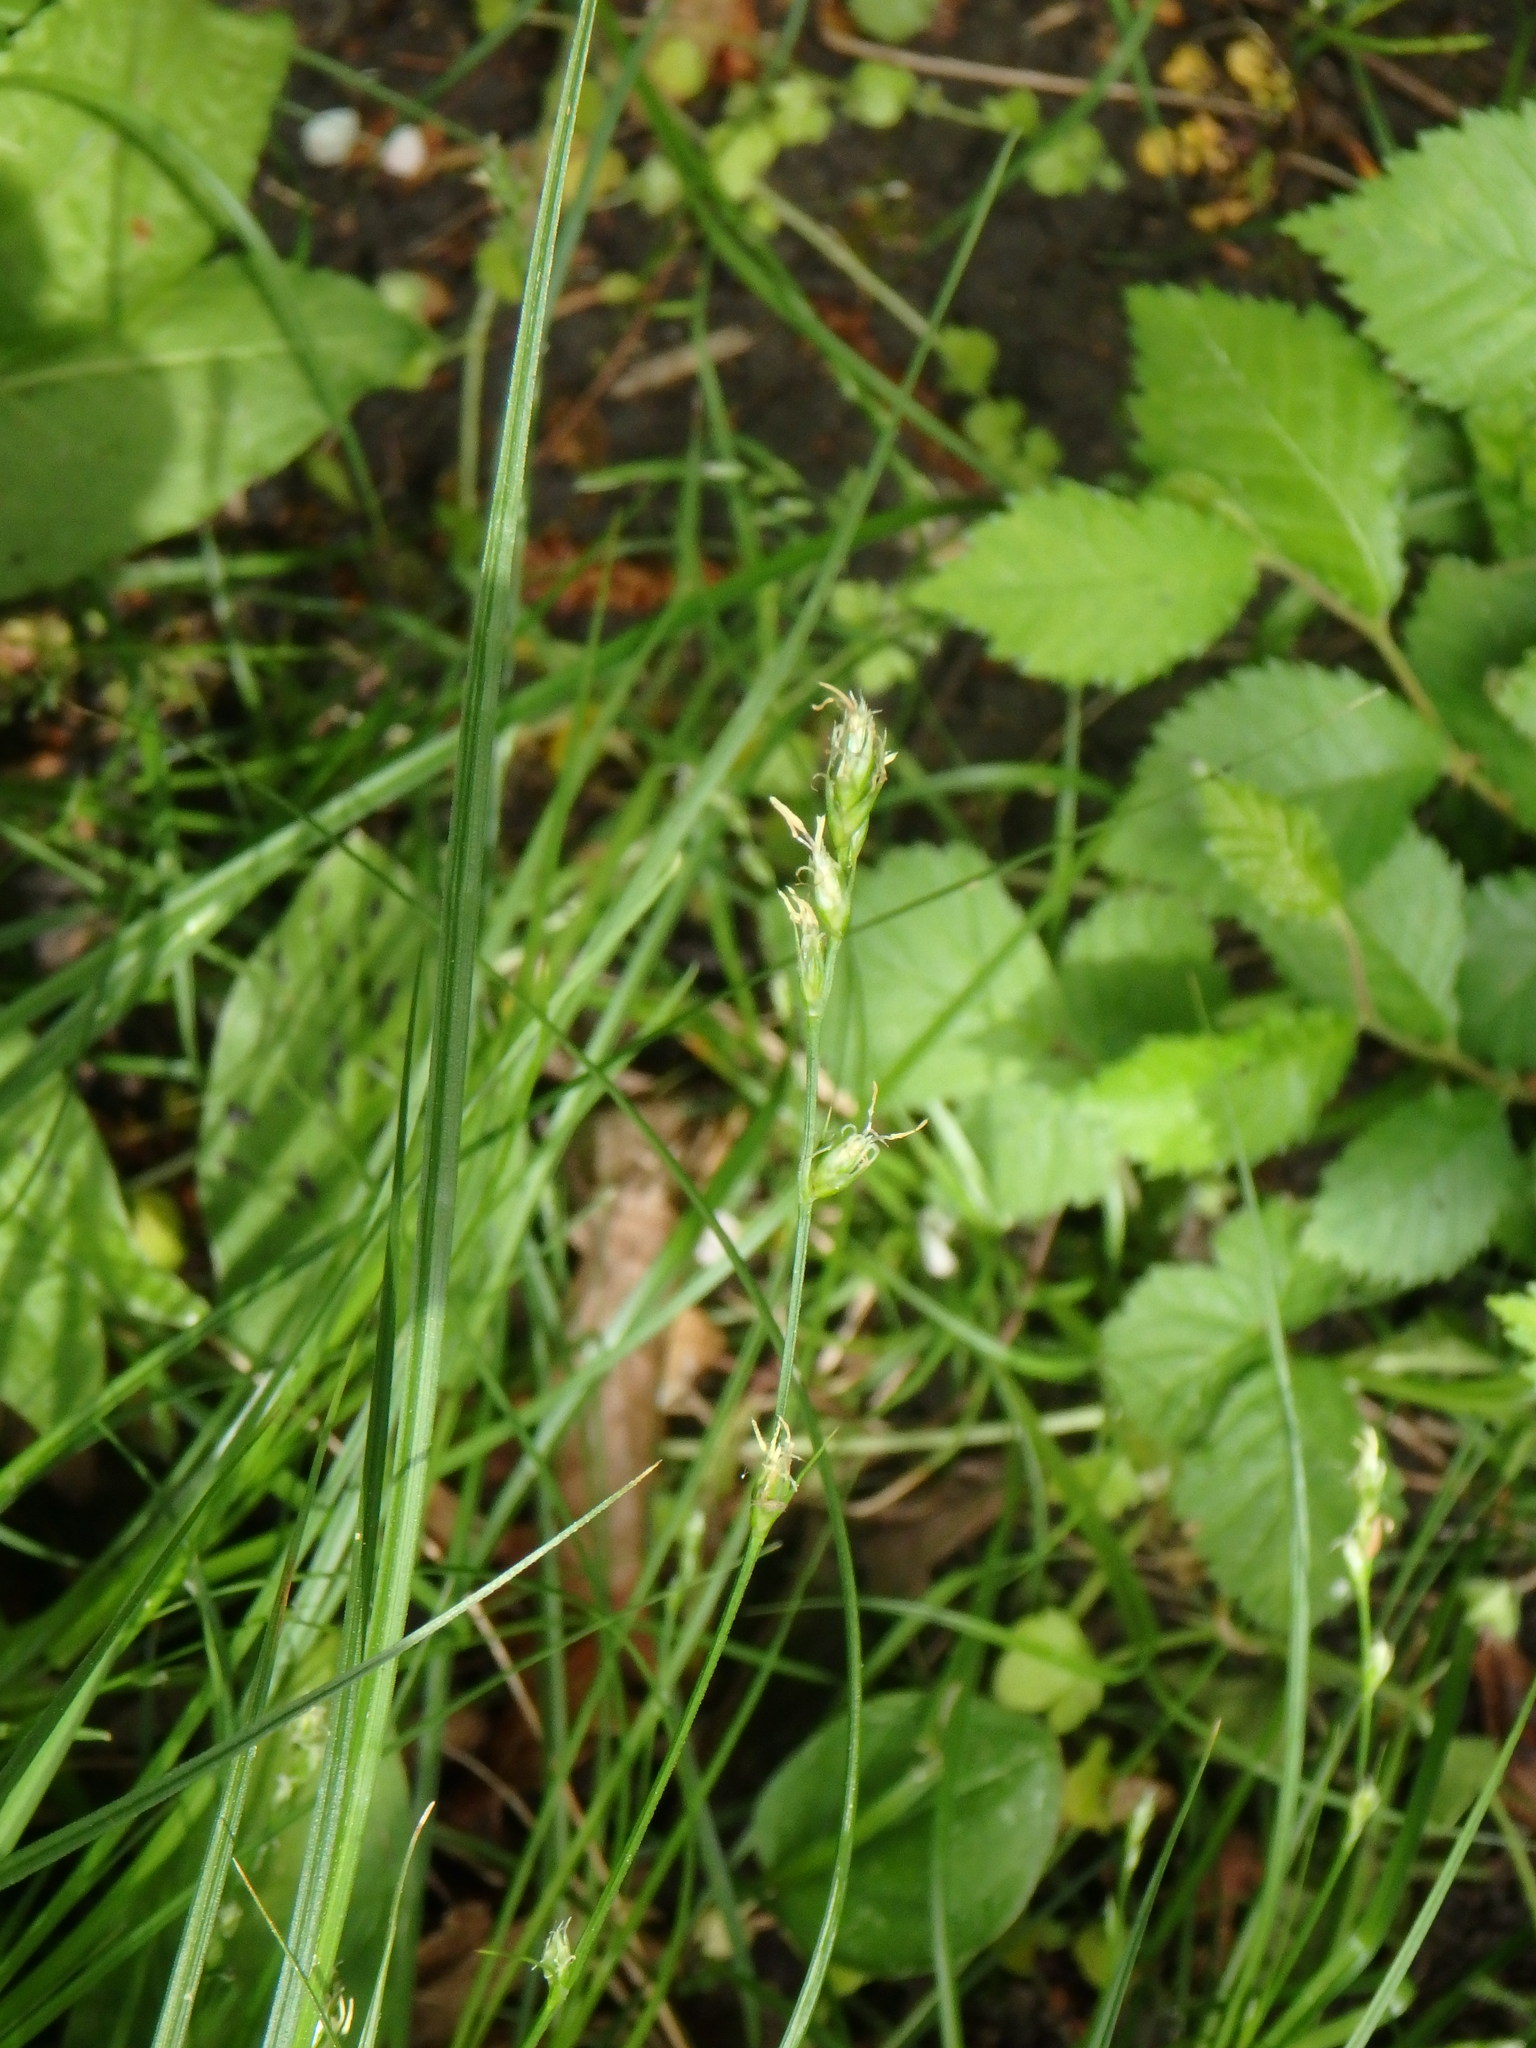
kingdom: Plantae
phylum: Tracheophyta
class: Liliopsida
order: Poales
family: Cyperaceae
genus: Carex
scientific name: Carex divulsa
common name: Grassland sedge
